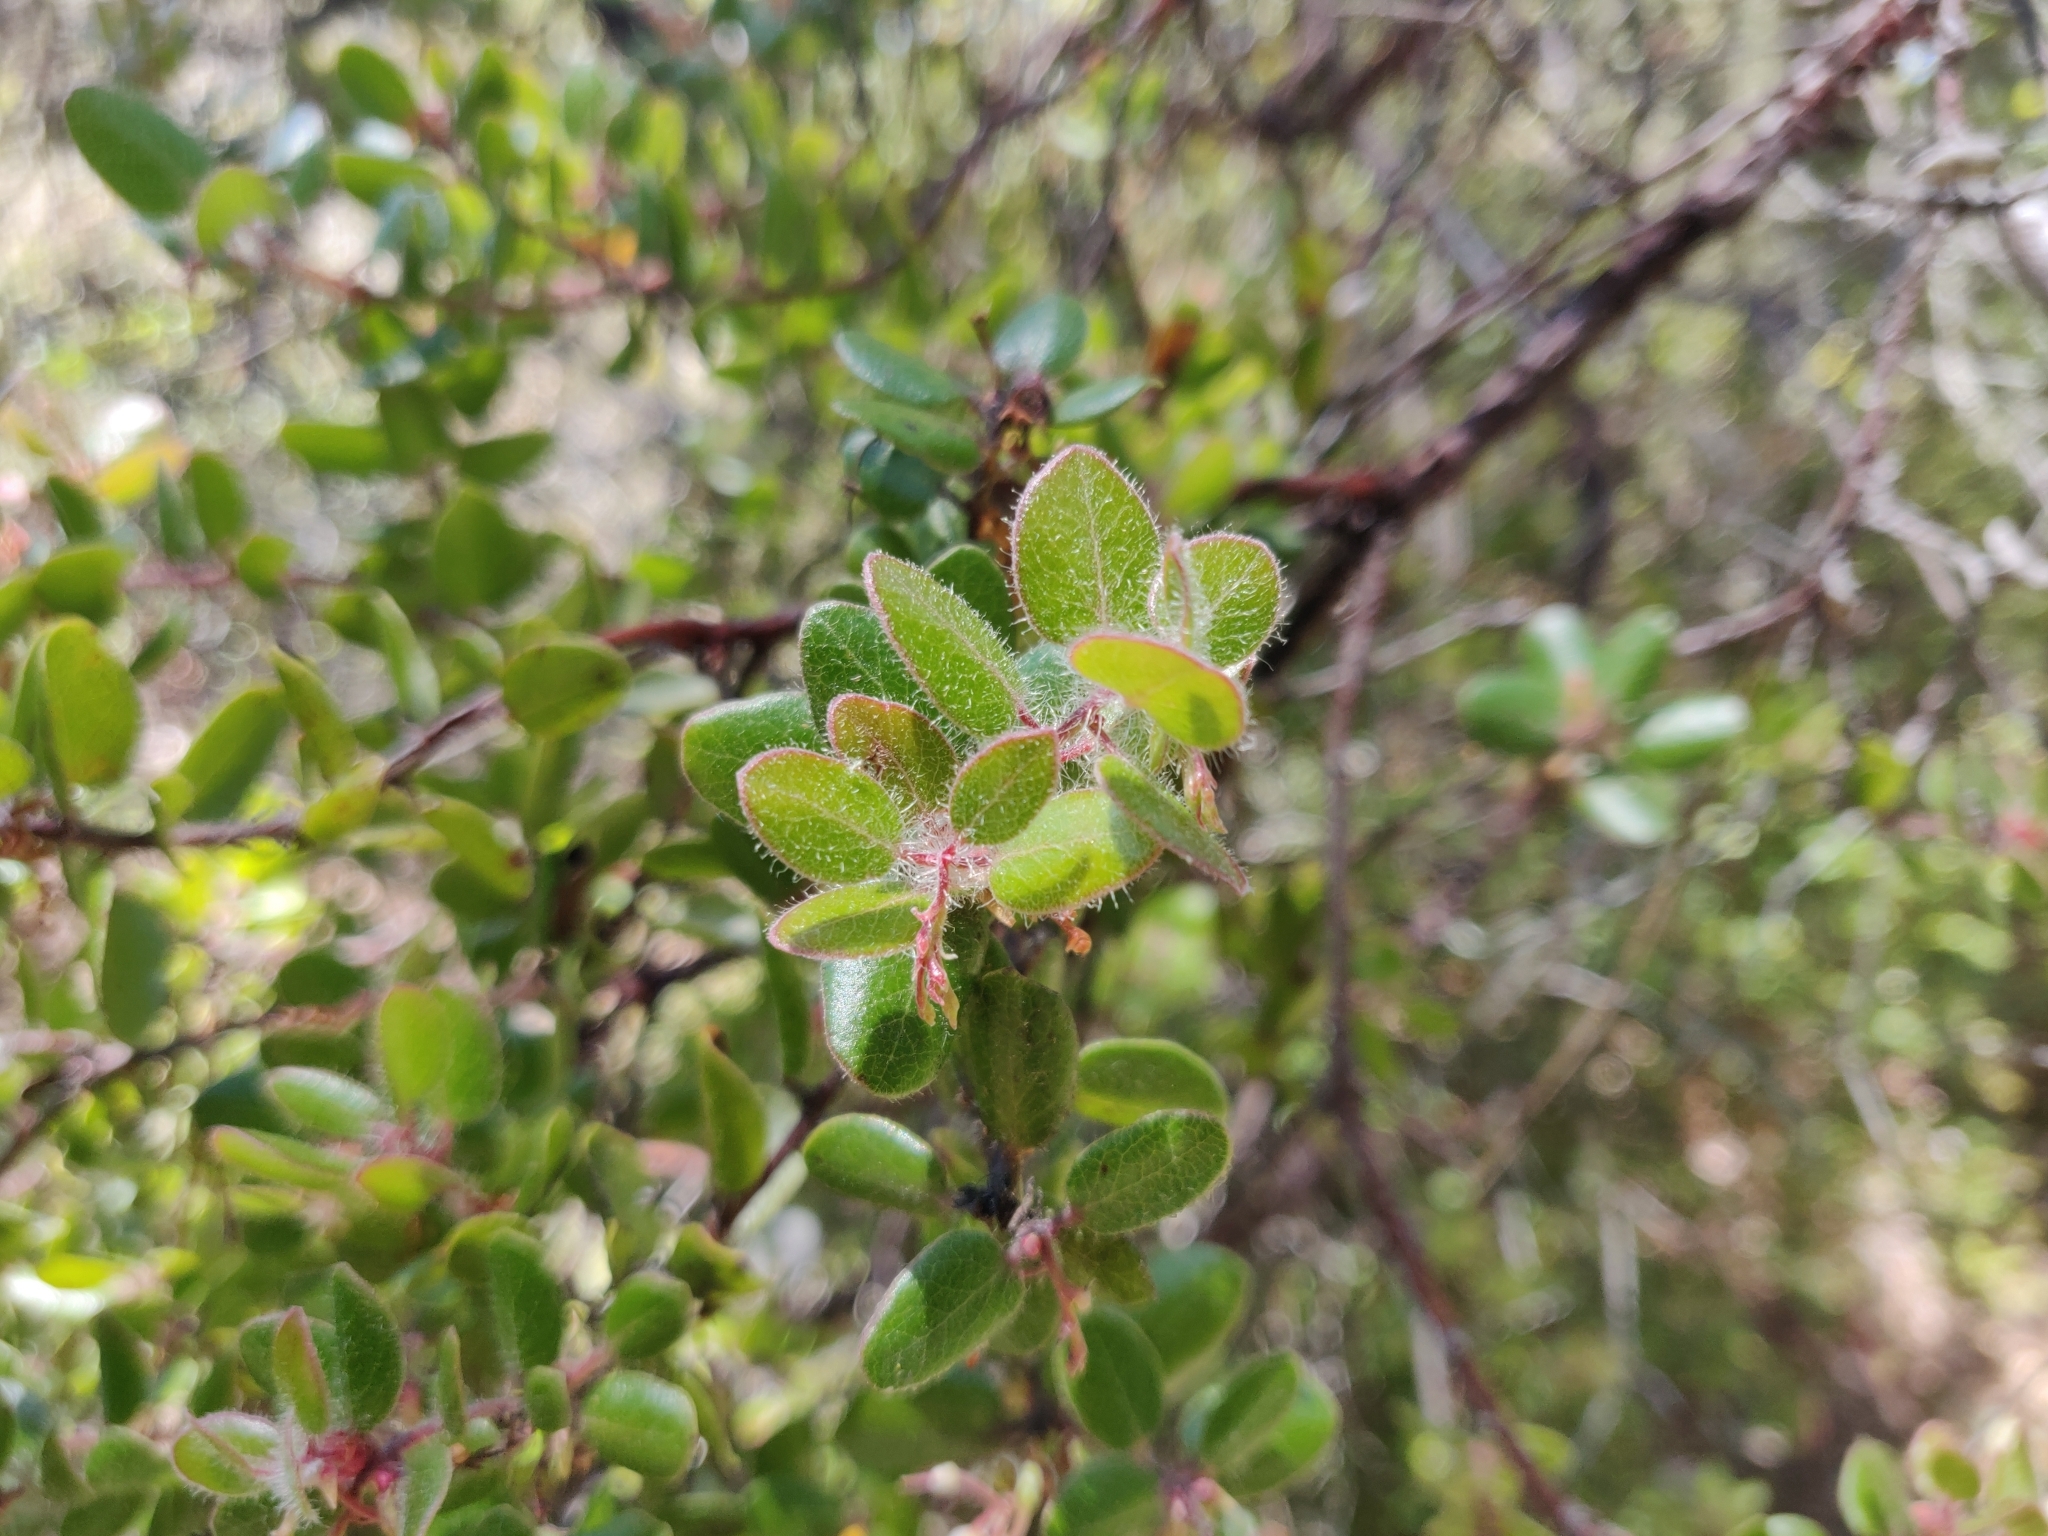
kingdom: Plantae
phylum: Tracheophyta
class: Magnoliopsida
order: Ericales
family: Ericaceae
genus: Arctostaphylos
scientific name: Arctostaphylos nummularia
